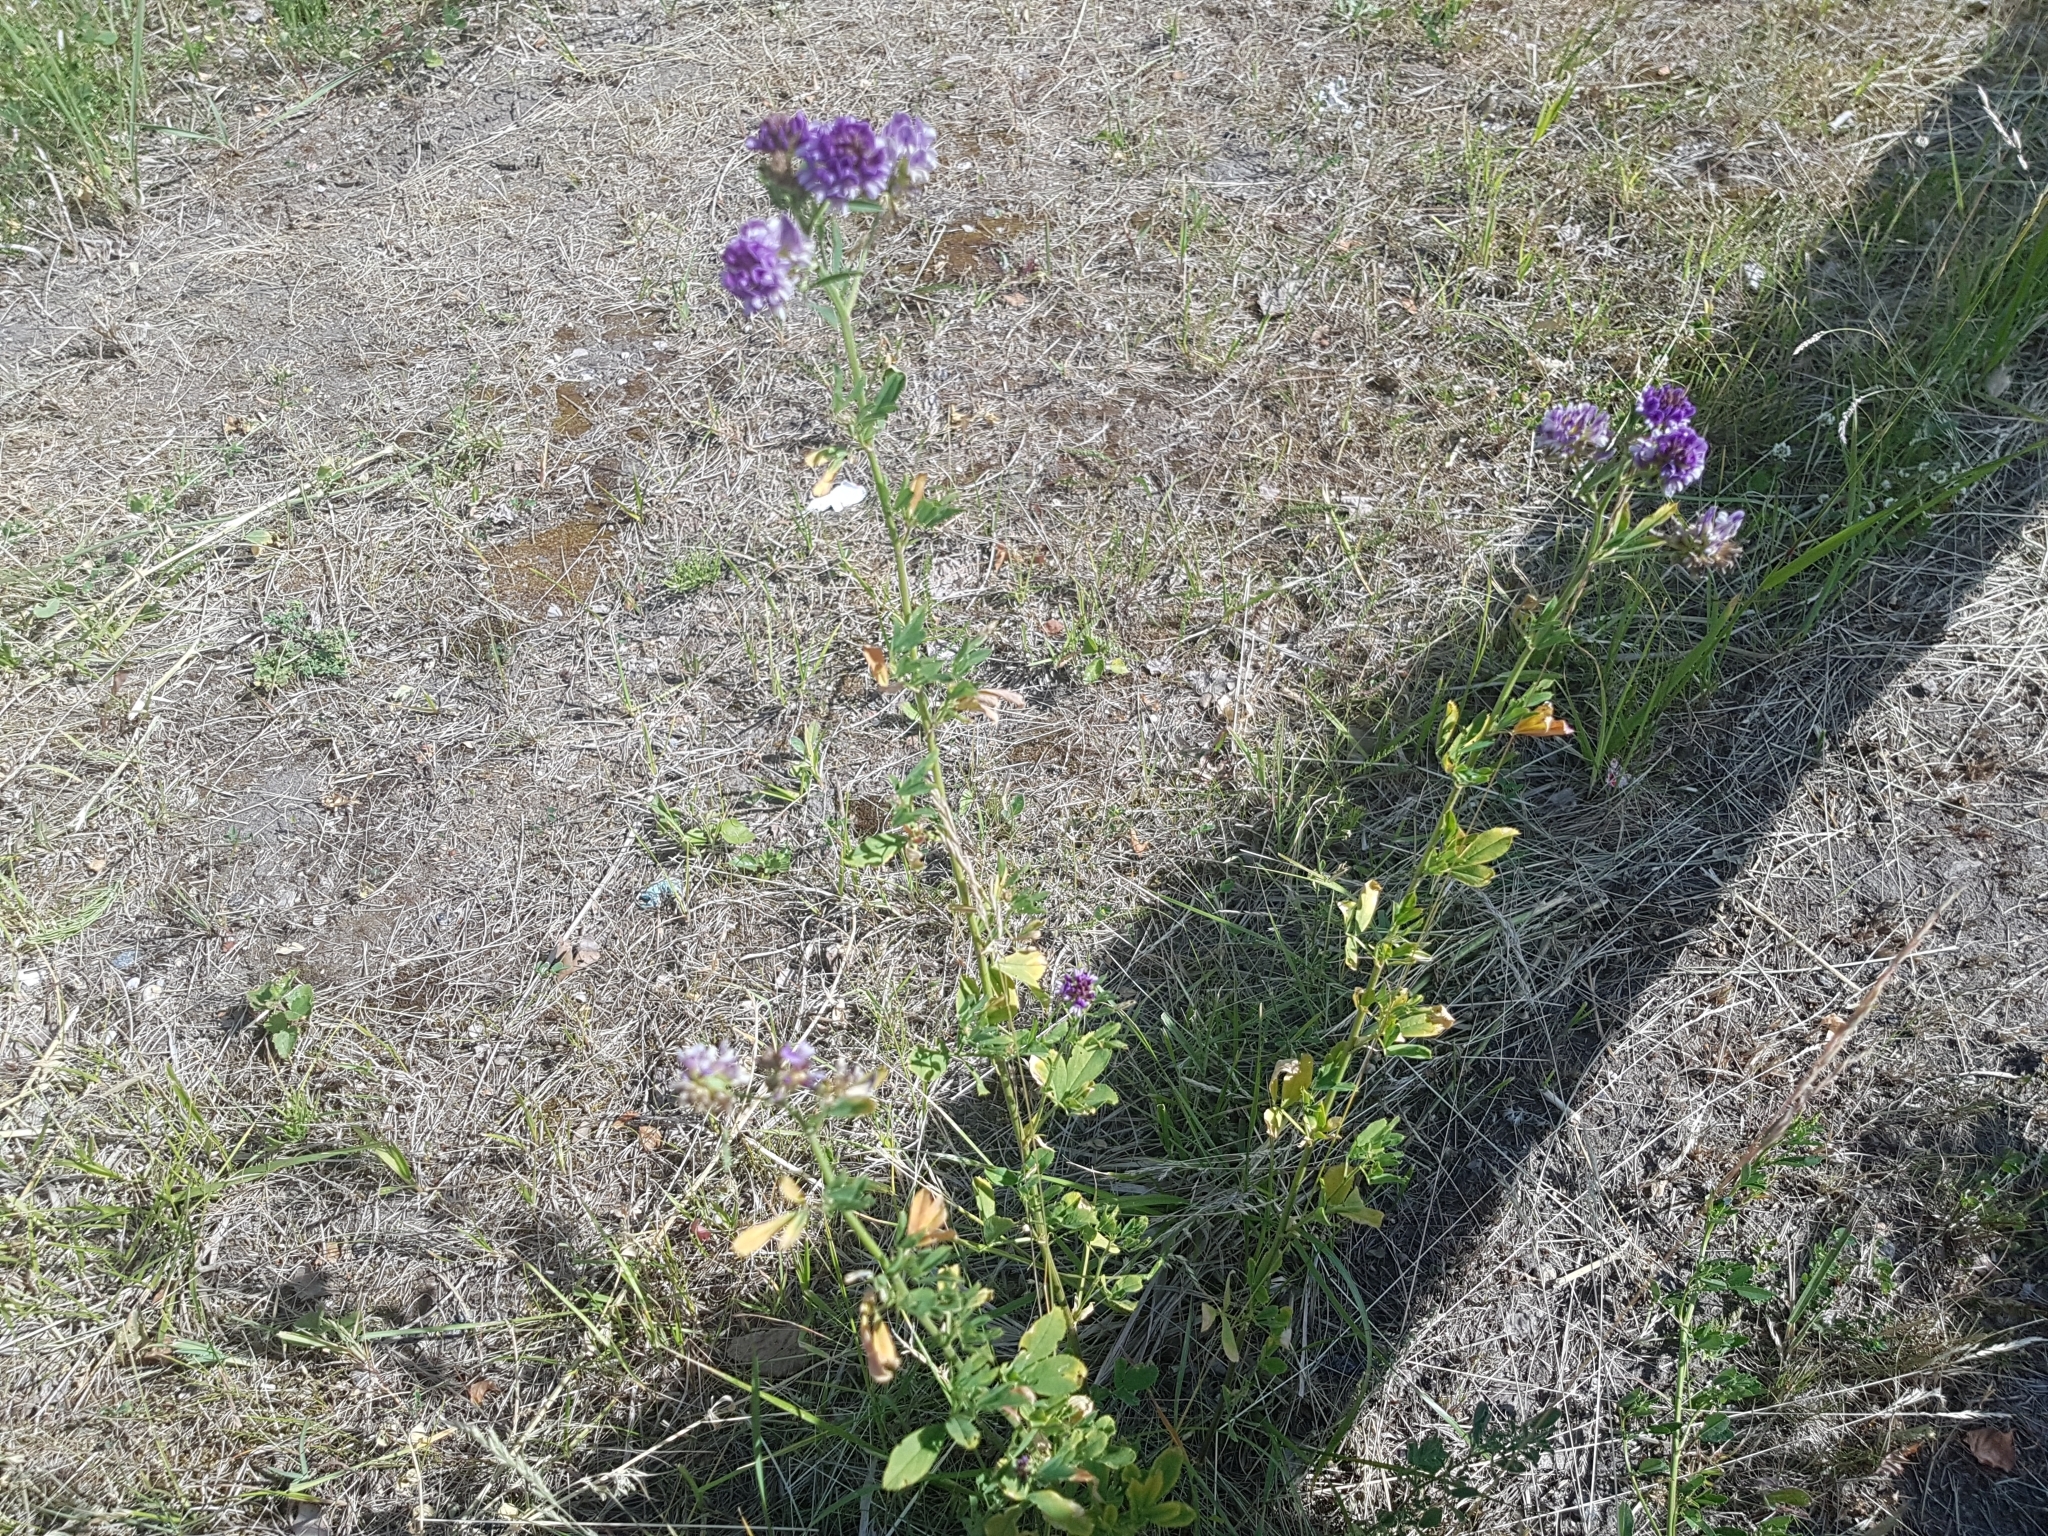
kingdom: Plantae
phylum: Tracheophyta
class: Magnoliopsida
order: Fabales
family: Fabaceae
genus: Medicago
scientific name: Medicago sativa
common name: Alfalfa
